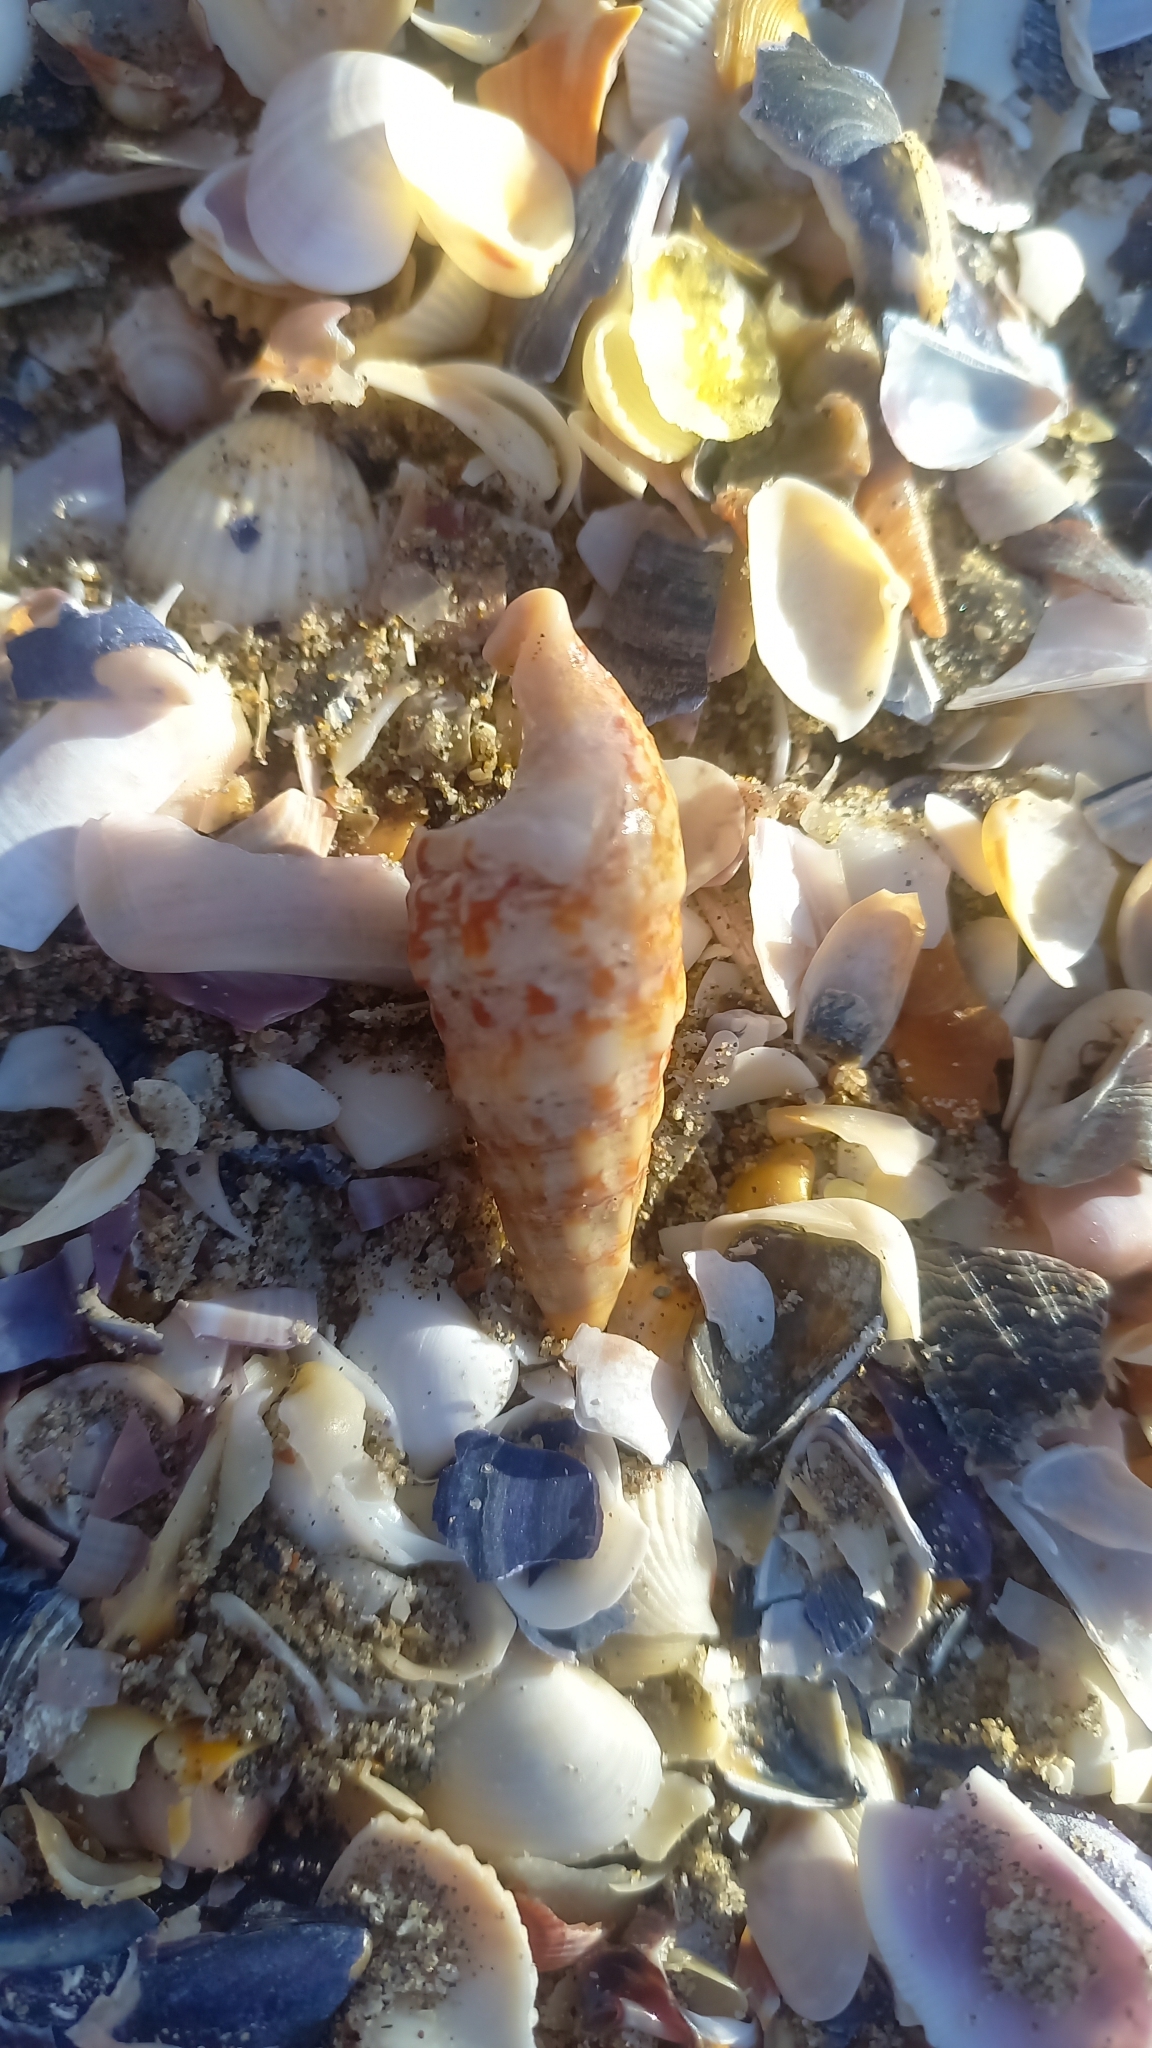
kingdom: Animalia
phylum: Mollusca
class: Gastropoda
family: Cerithiidae
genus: Cerithium
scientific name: Cerithium vulgatum
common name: European cerith
